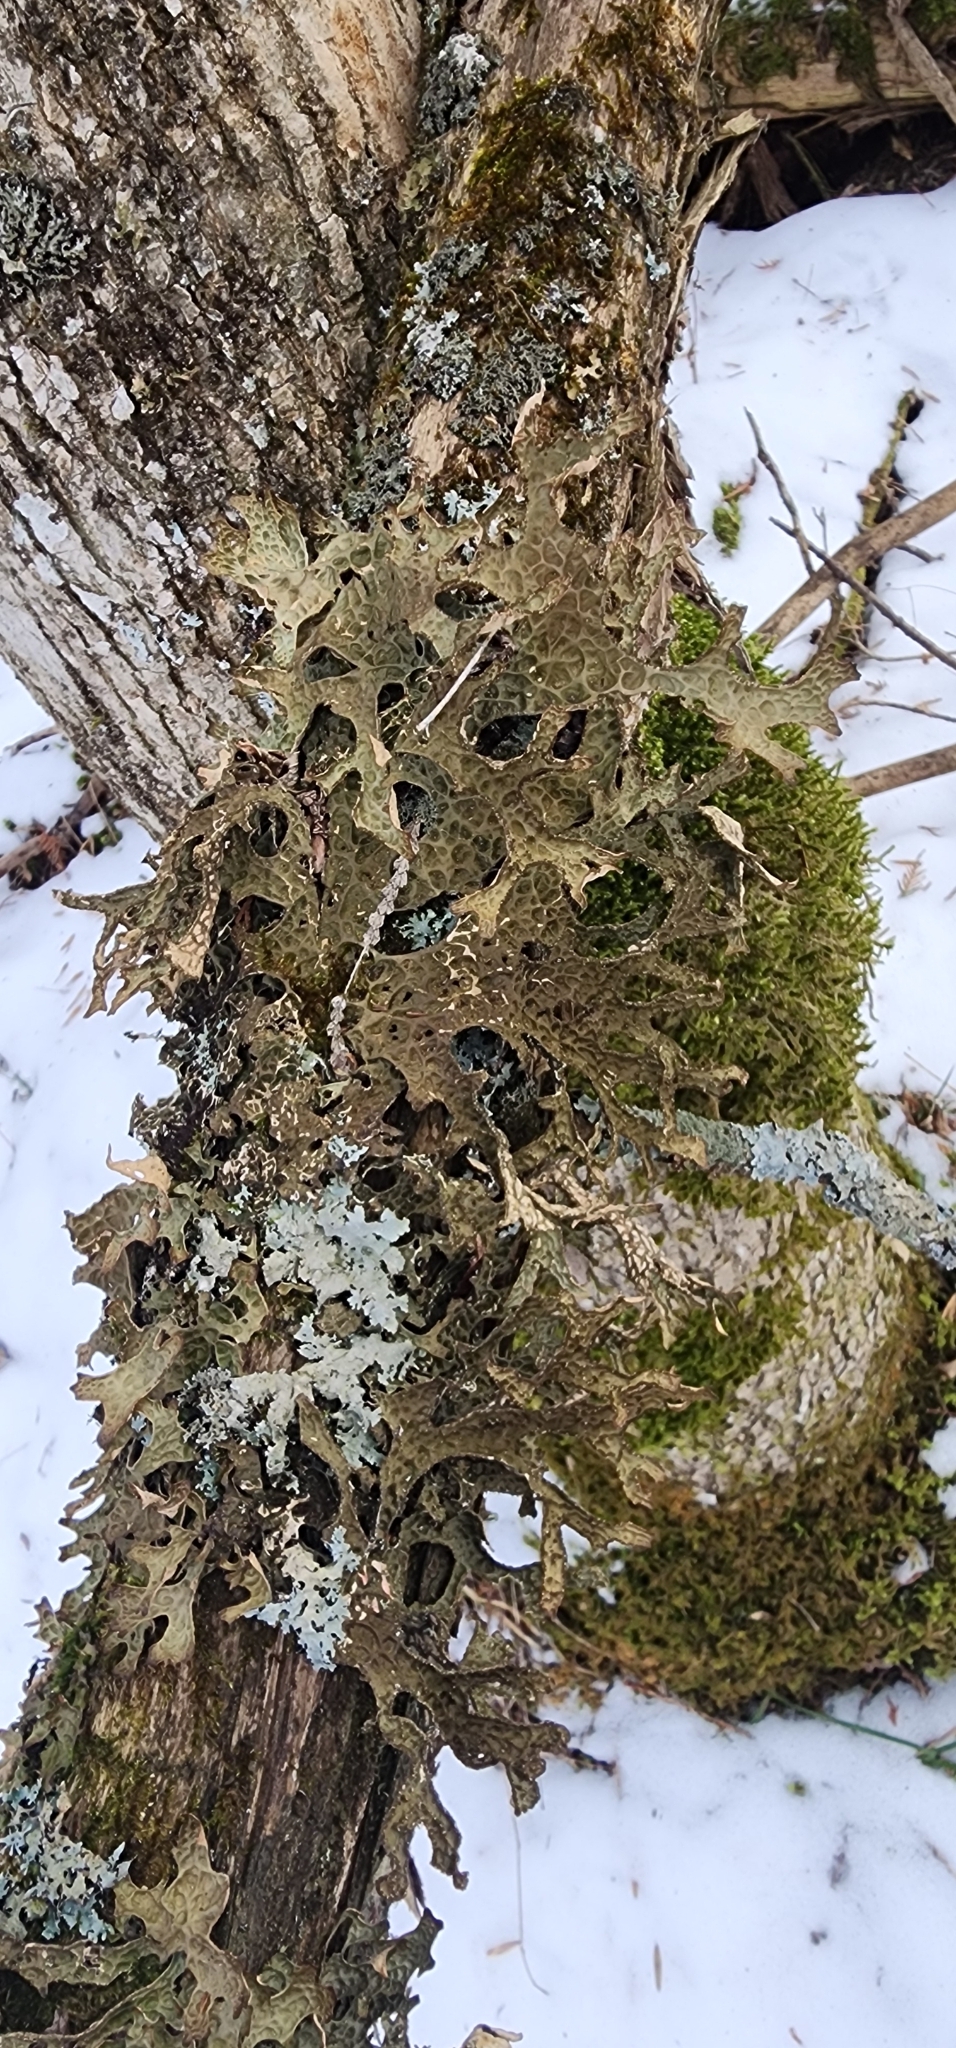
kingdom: Fungi
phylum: Ascomycota
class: Lecanoromycetes
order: Peltigerales
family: Lobariaceae
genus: Lobaria
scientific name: Lobaria pulmonaria
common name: Lungwort
